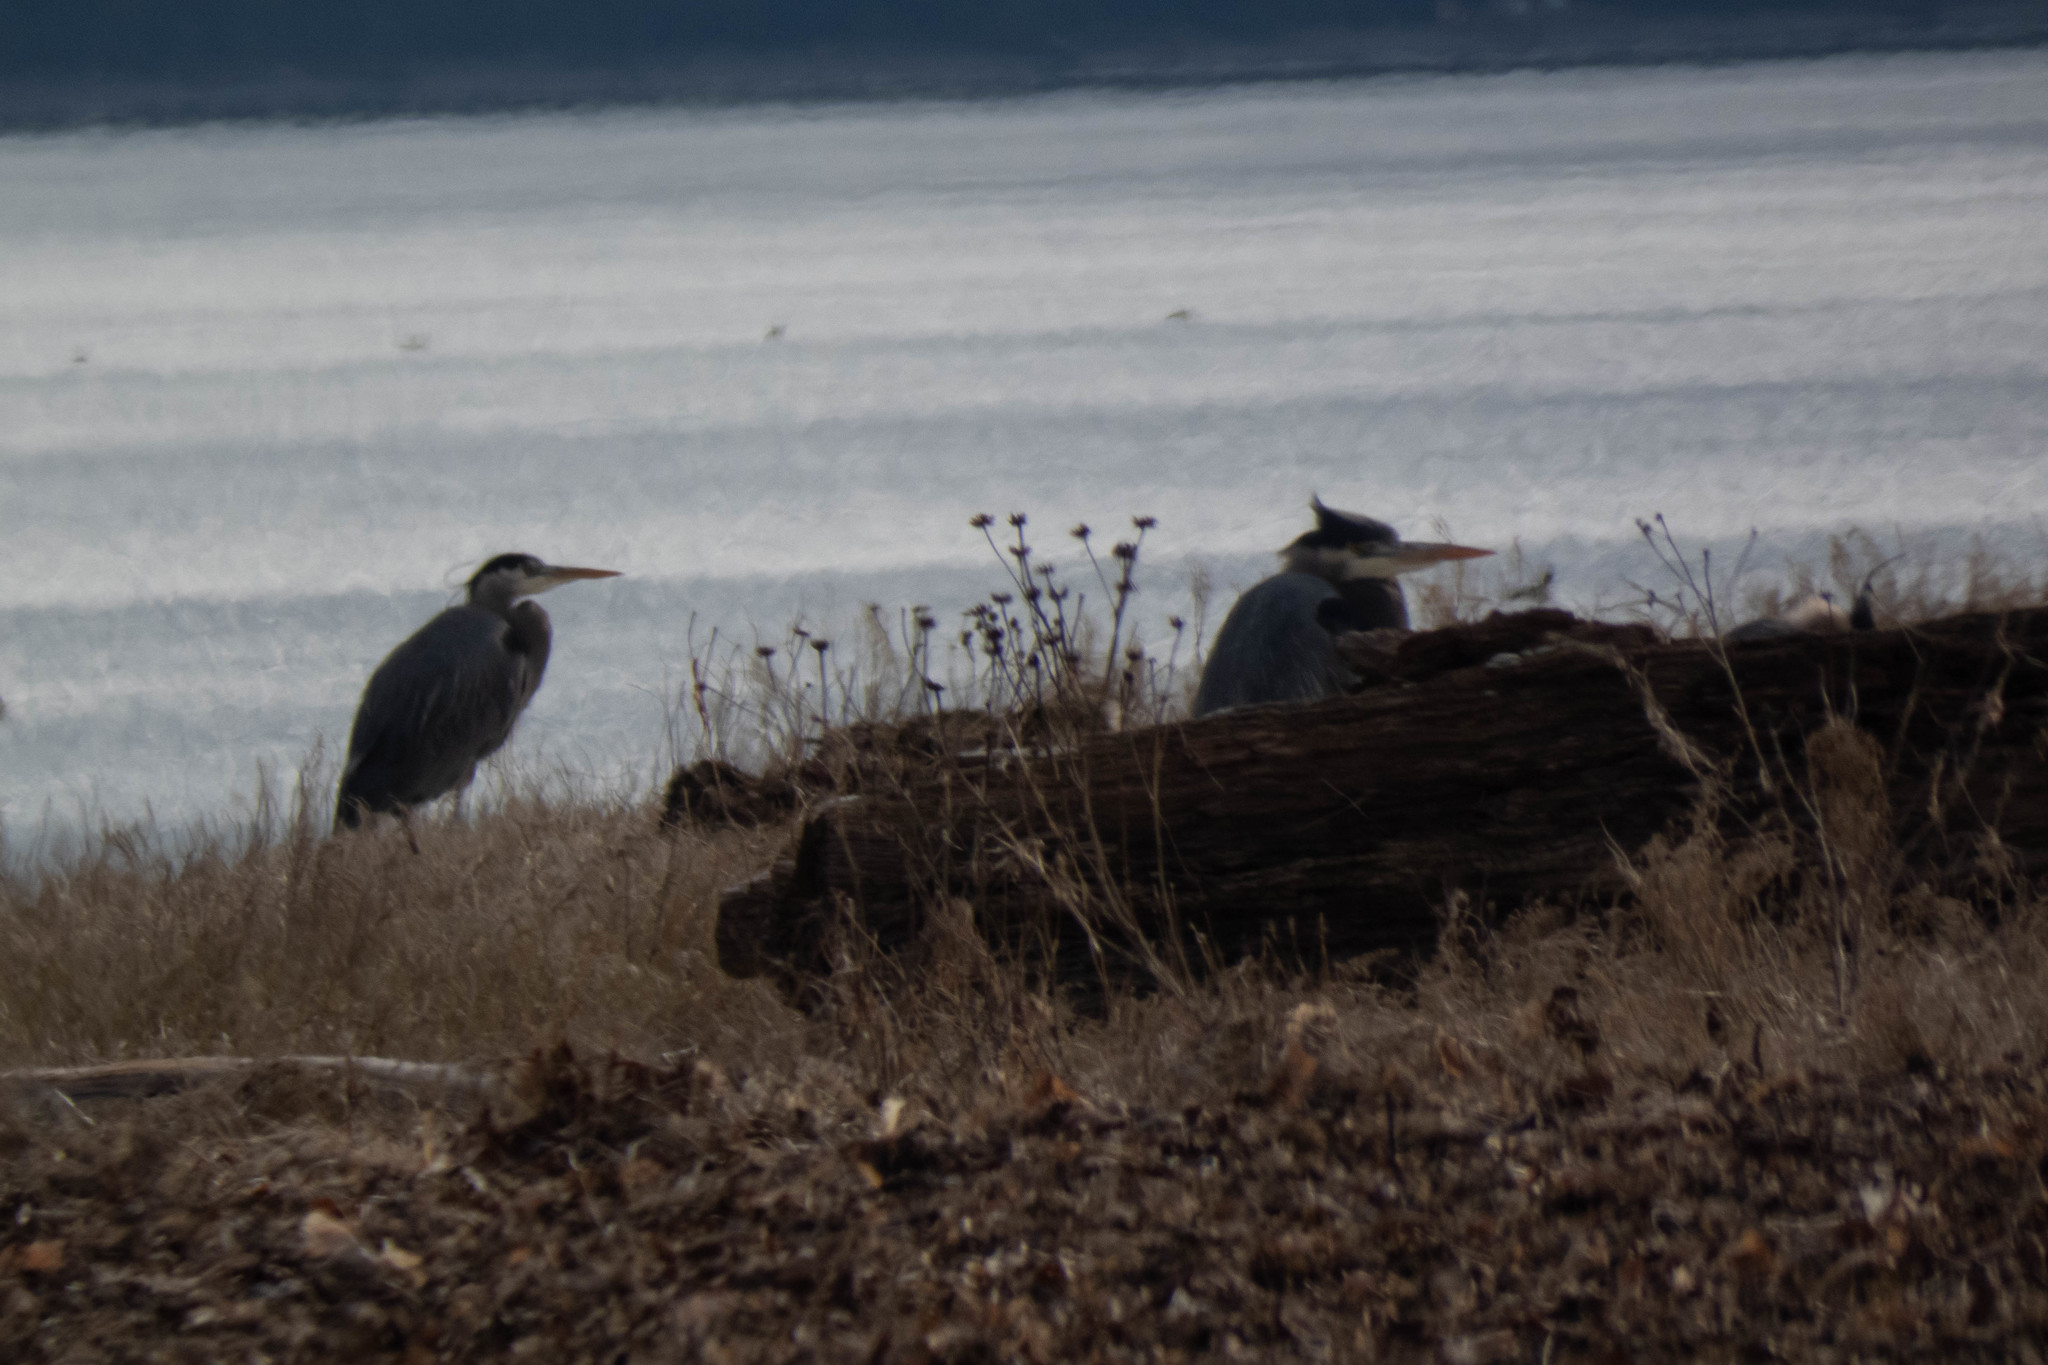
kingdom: Animalia
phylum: Chordata
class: Aves
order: Pelecaniformes
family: Ardeidae
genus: Ardea
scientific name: Ardea herodias
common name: Great blue heron
